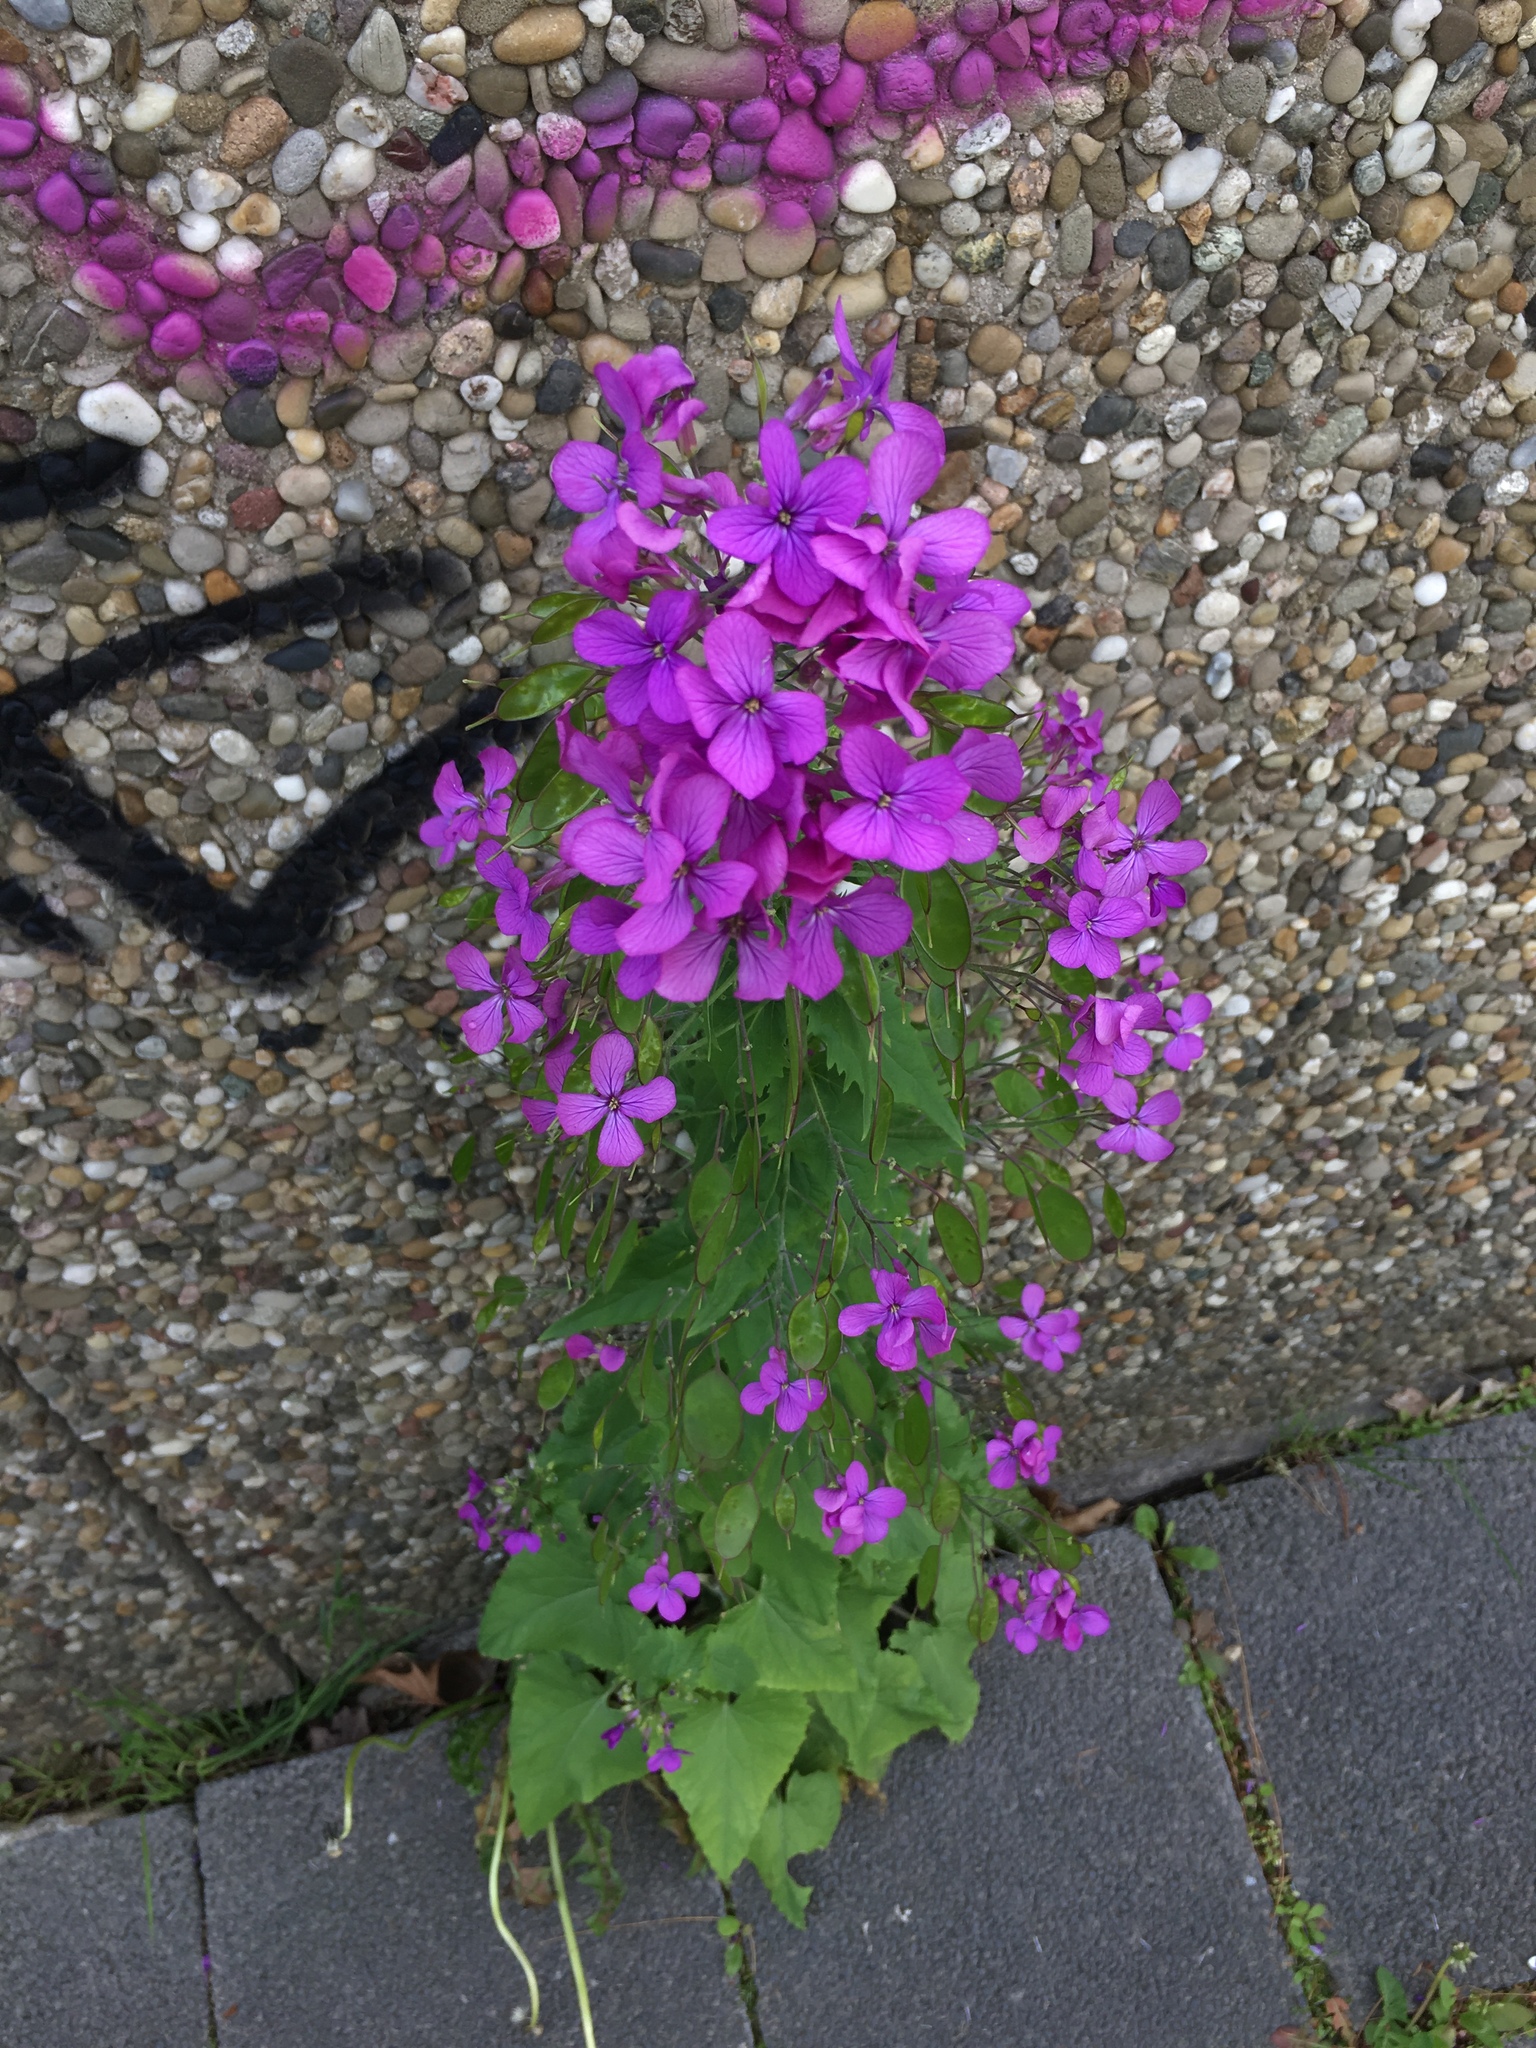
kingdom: Plantae
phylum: Tracheophyta
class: Magnoliopsida
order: Brassicales
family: Brassicaceae
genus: Lunaria
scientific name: Lunaria annua
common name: Honesty
